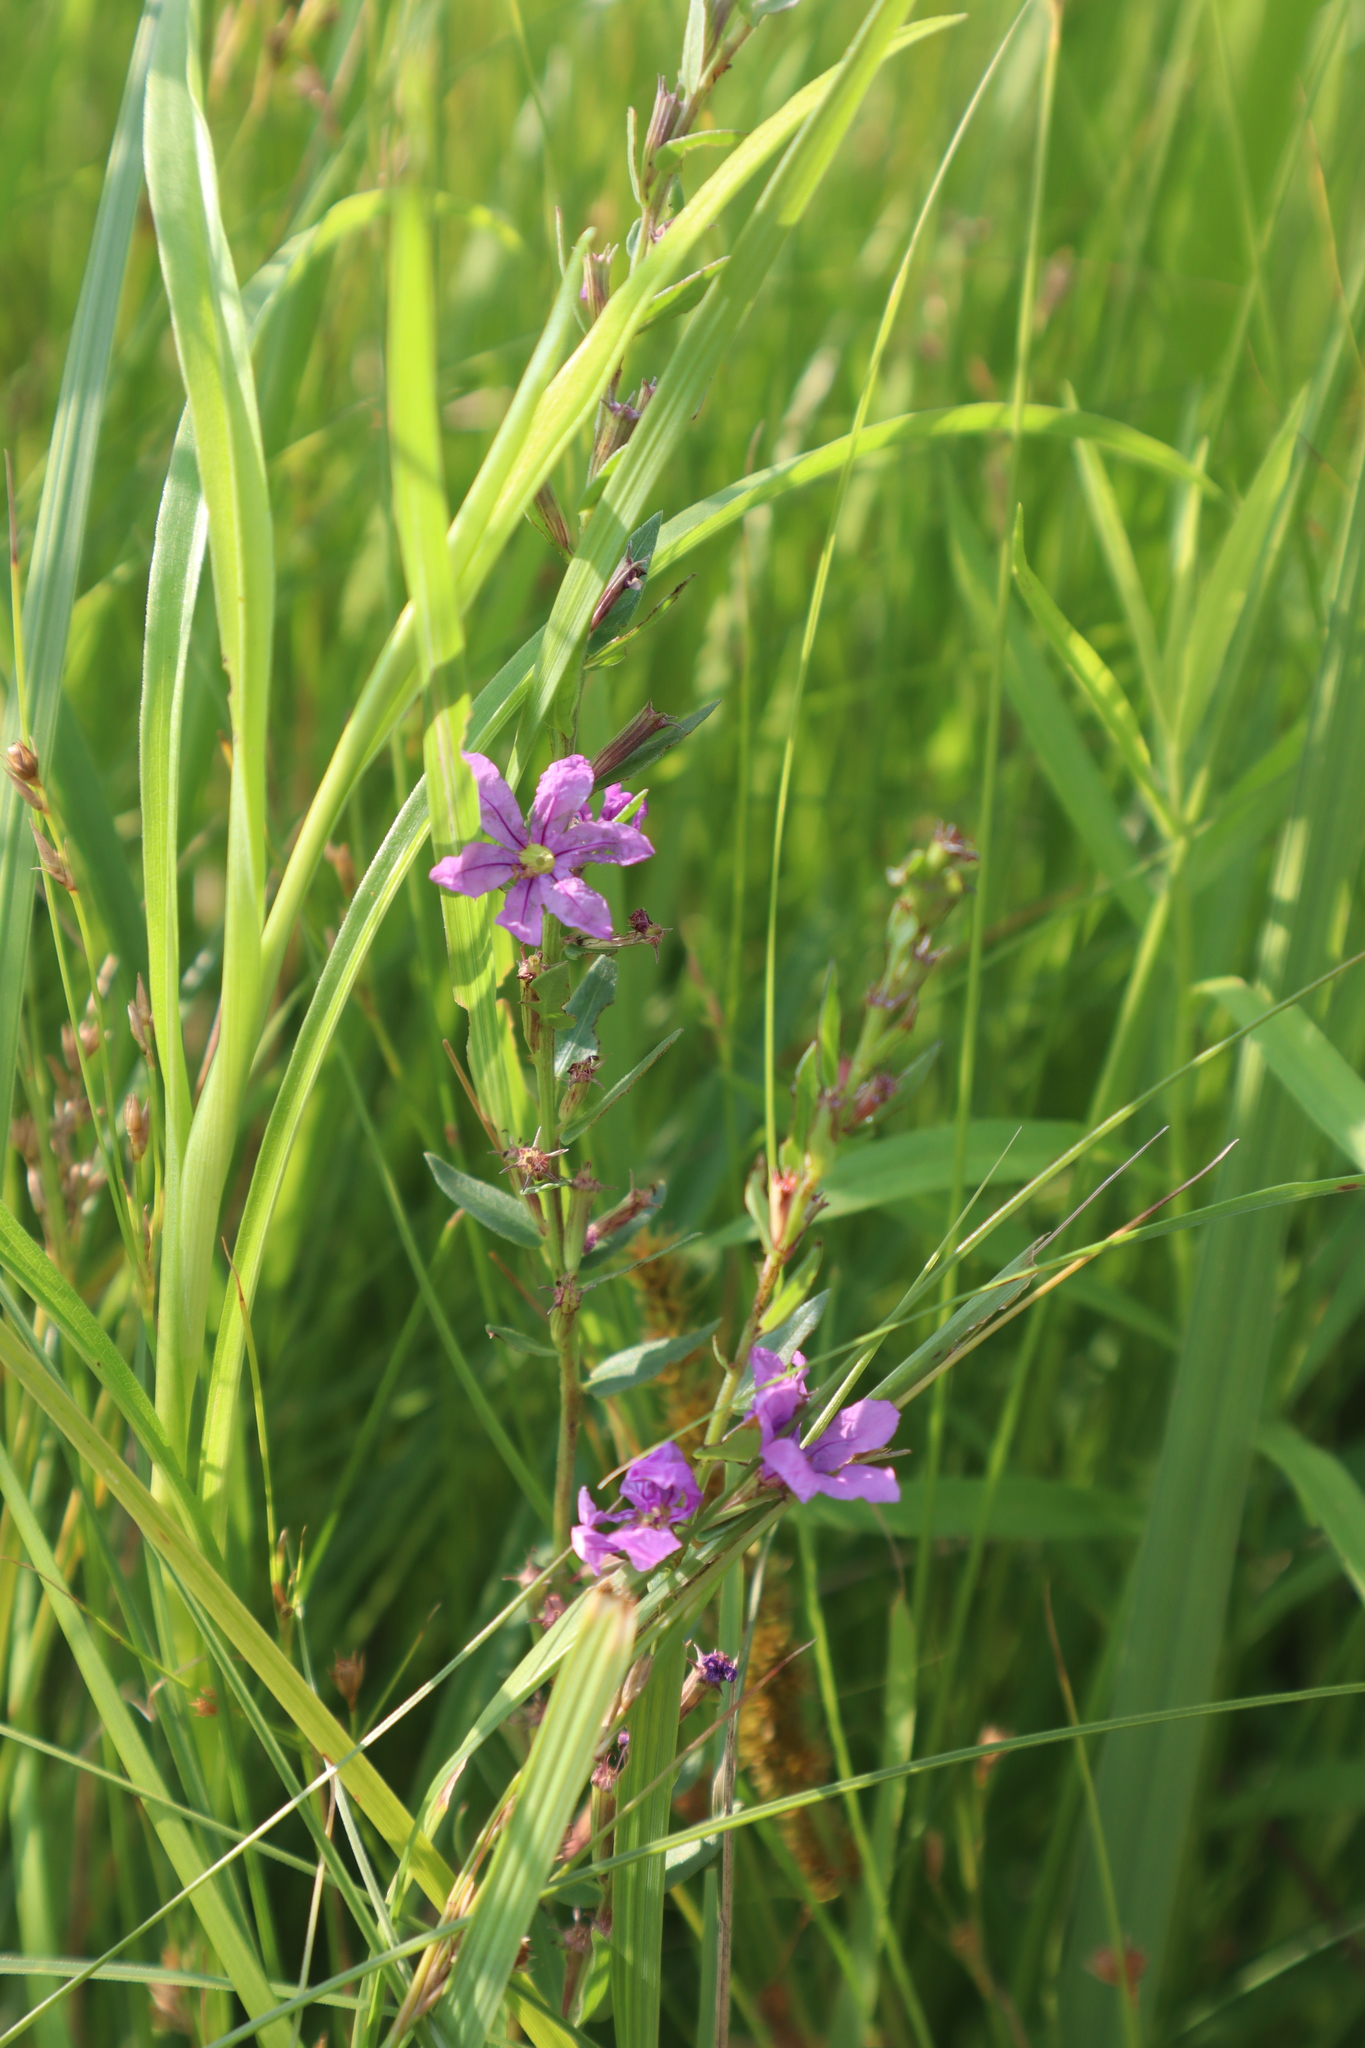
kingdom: Plantae
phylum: Tracheophyta
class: Magnoliopsida
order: Myrtales
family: Lythraceae
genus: Lythrum
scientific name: Lythrum alatum
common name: Winged loosestrife
